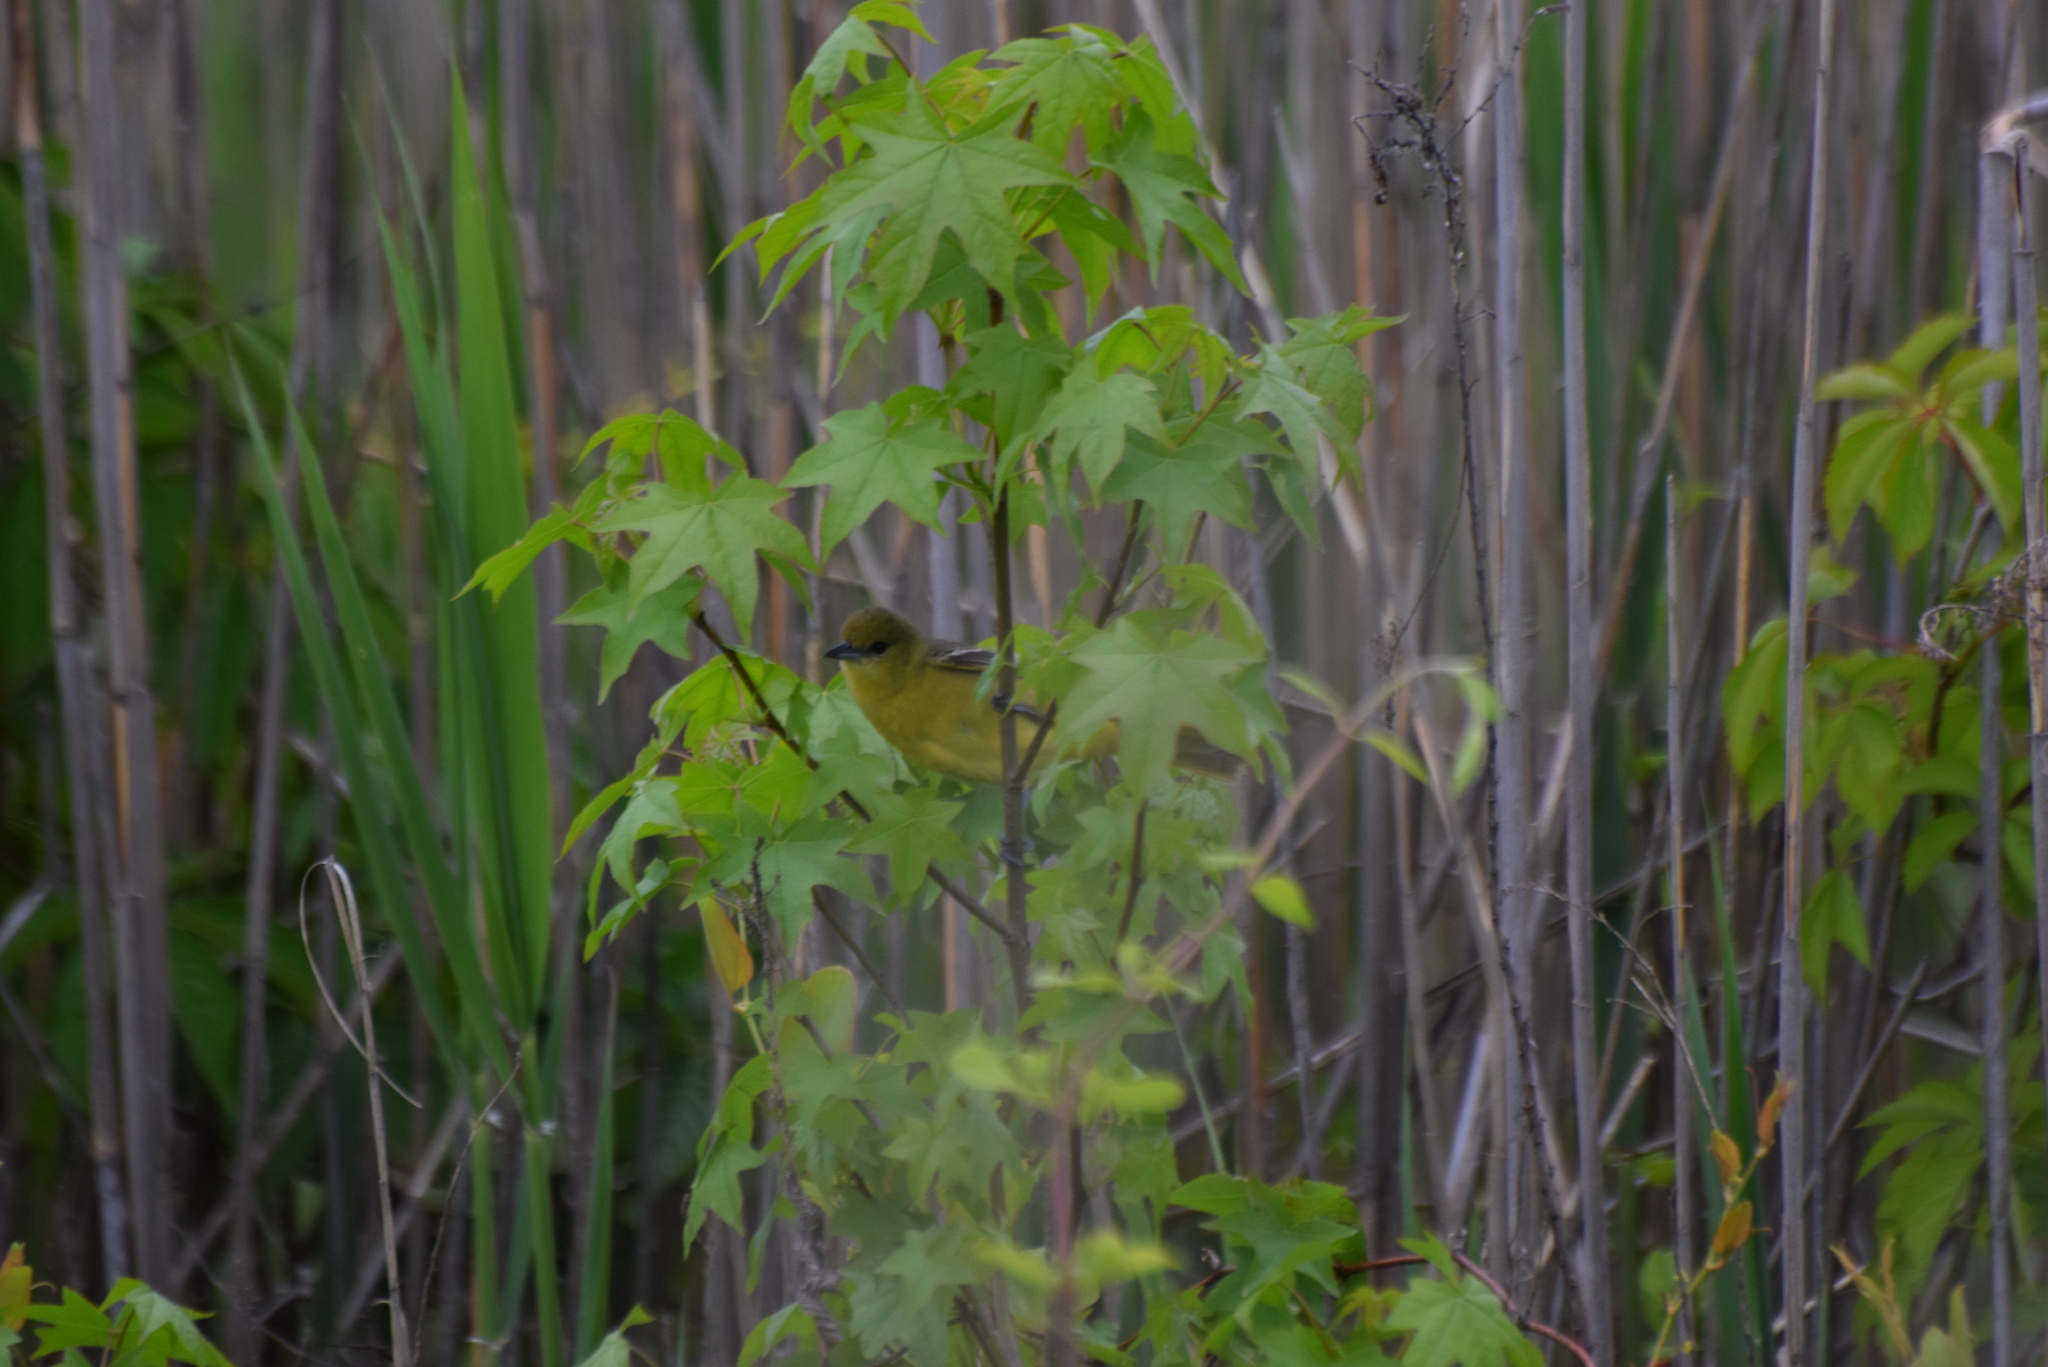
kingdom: Animalia
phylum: Chordata
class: Aves
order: Passeriformes
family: Icteridae
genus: Icterus
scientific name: Icterus spurius
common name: Orchard oriole
